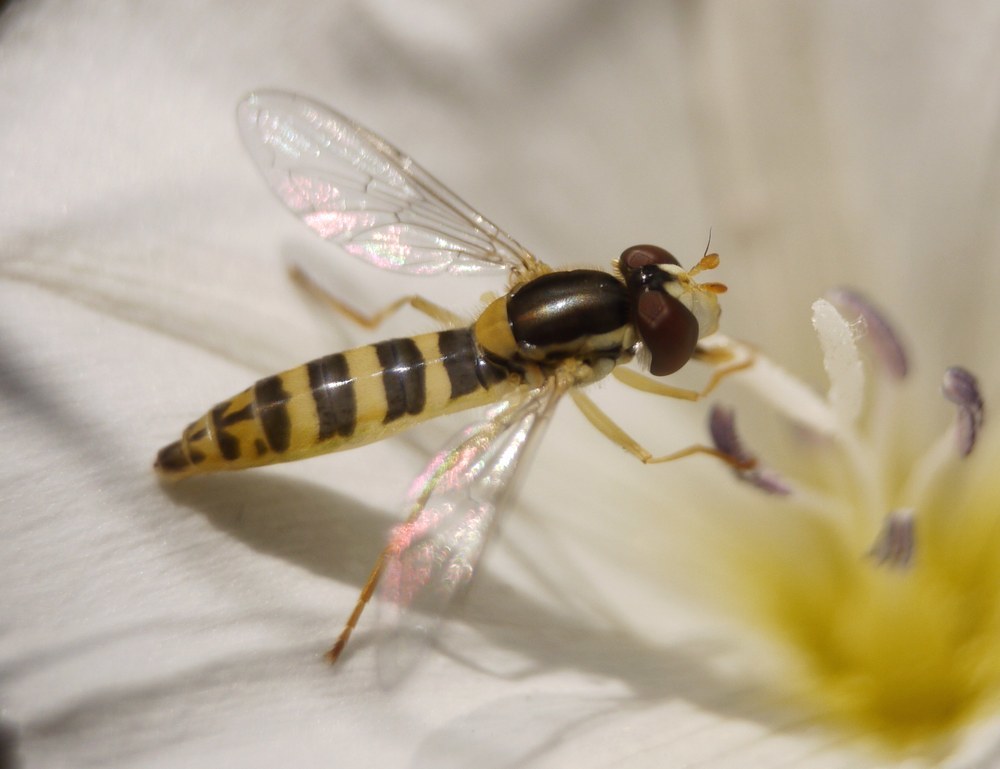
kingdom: Animalia
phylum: Arthropoda
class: Insecta
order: Diptera
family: Syrphidae
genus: Sphaerophoria
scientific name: Sphaerophoria
